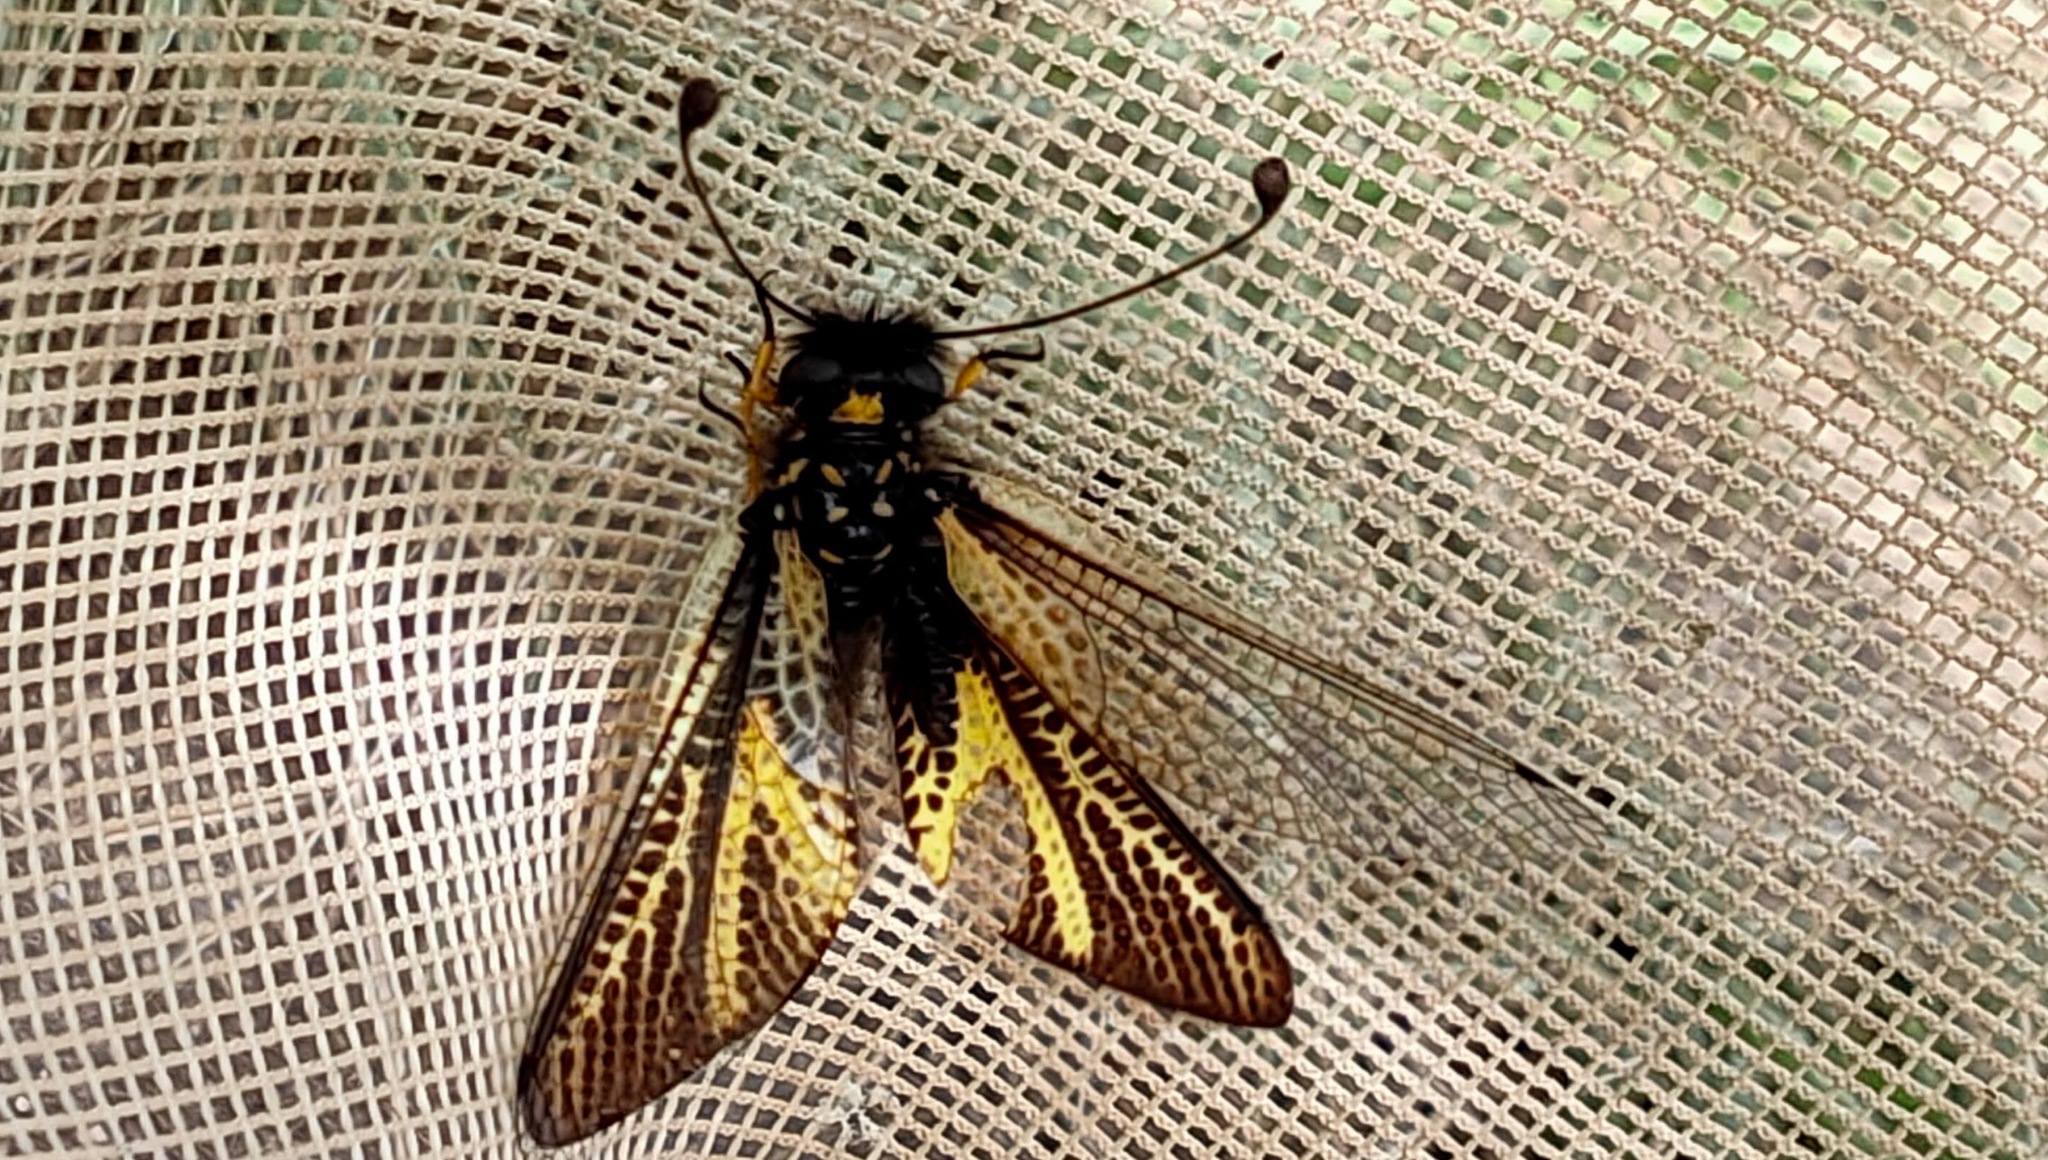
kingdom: Animalia
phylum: Arthropoda
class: Insecta
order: Neuroptera
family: Ascalaphidae
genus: Libelloides
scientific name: Libelloides ramburi
